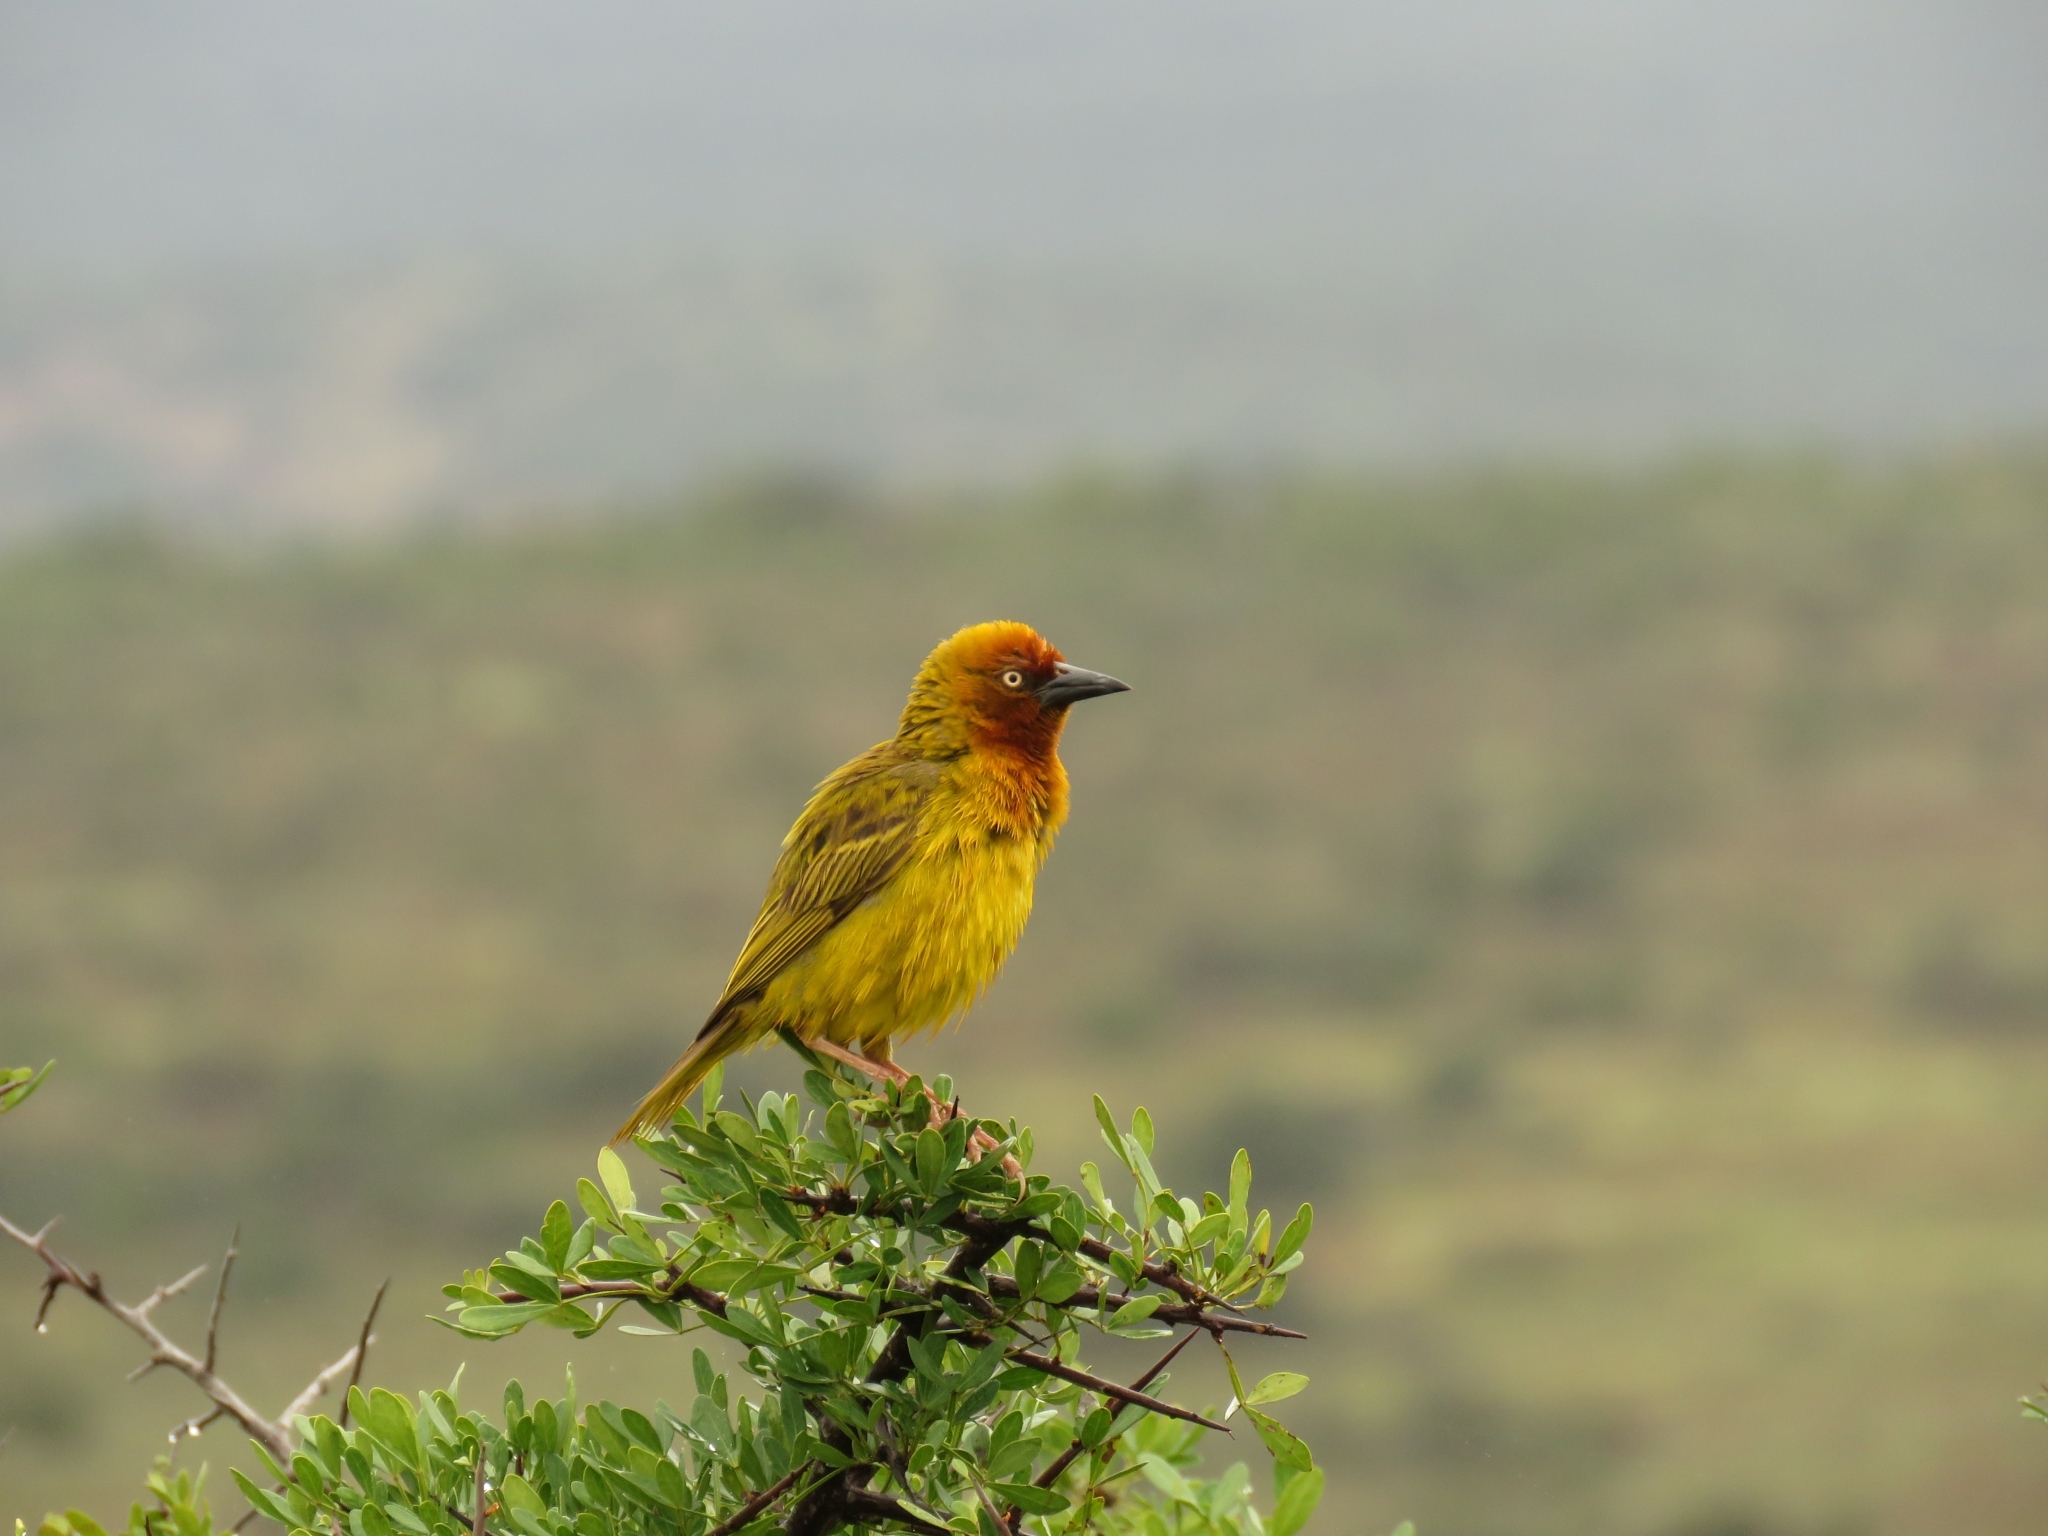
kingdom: Animalia
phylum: Chordata
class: Aves
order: Passeriformes
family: Ploceidae
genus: Ploceus
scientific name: Ploceus capensis
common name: Cape weaver
